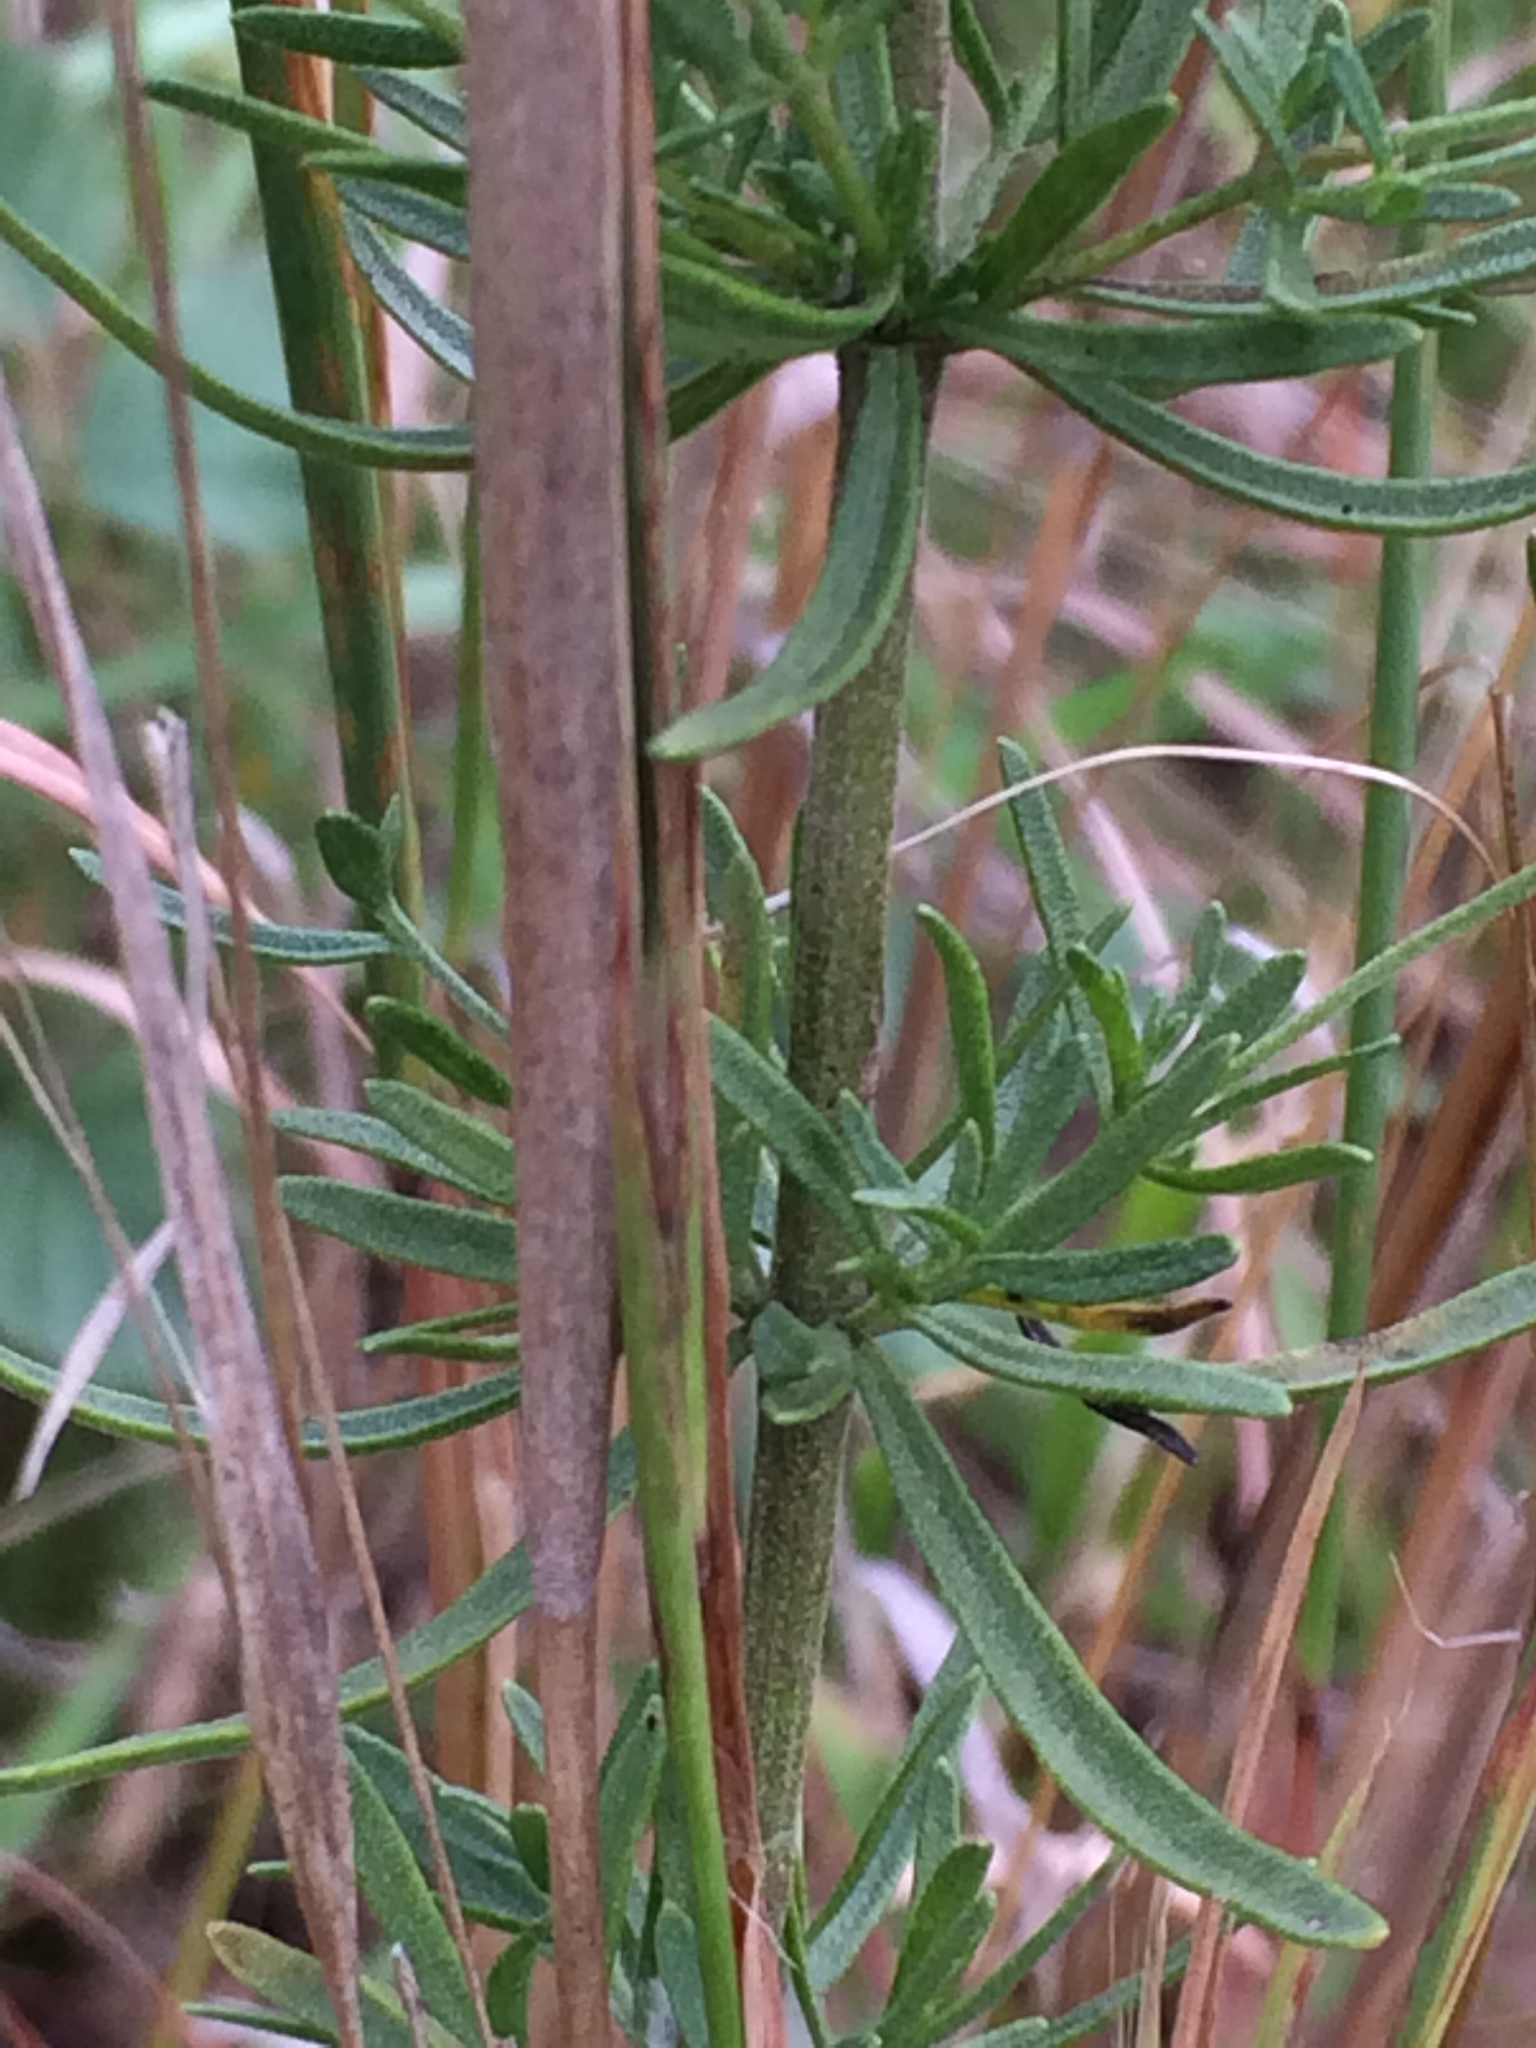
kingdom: Plantae
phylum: Tracheophyta
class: Magnoliopsida
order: Asterales
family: Asteraceae
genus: Eupatorium
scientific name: Eupatorium hyssopifolium
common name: Hyssop-leaf thoroughwort
